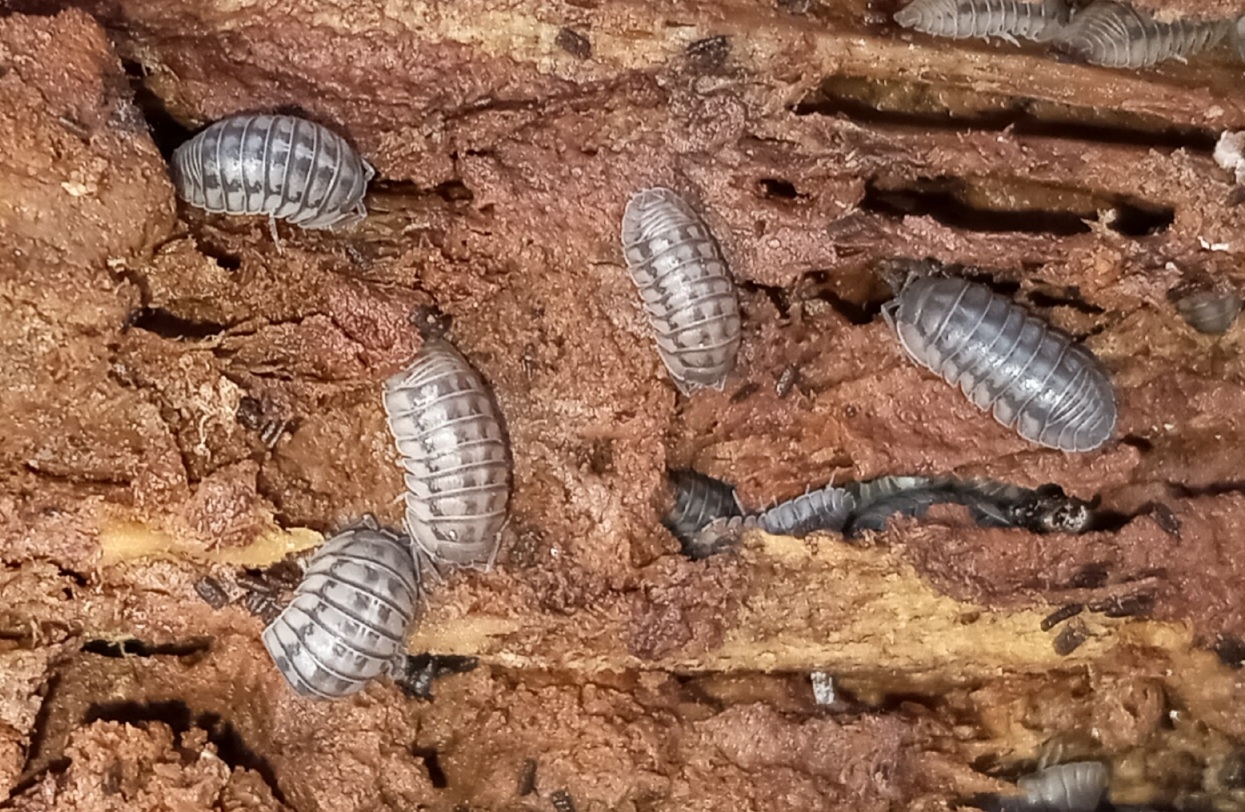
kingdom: Animalia
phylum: Arthropoda
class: Malacostraca
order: Isopoda
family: Armadillidiidae
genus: Armadillidium
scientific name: Armadillidium nasatum
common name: Isopod
